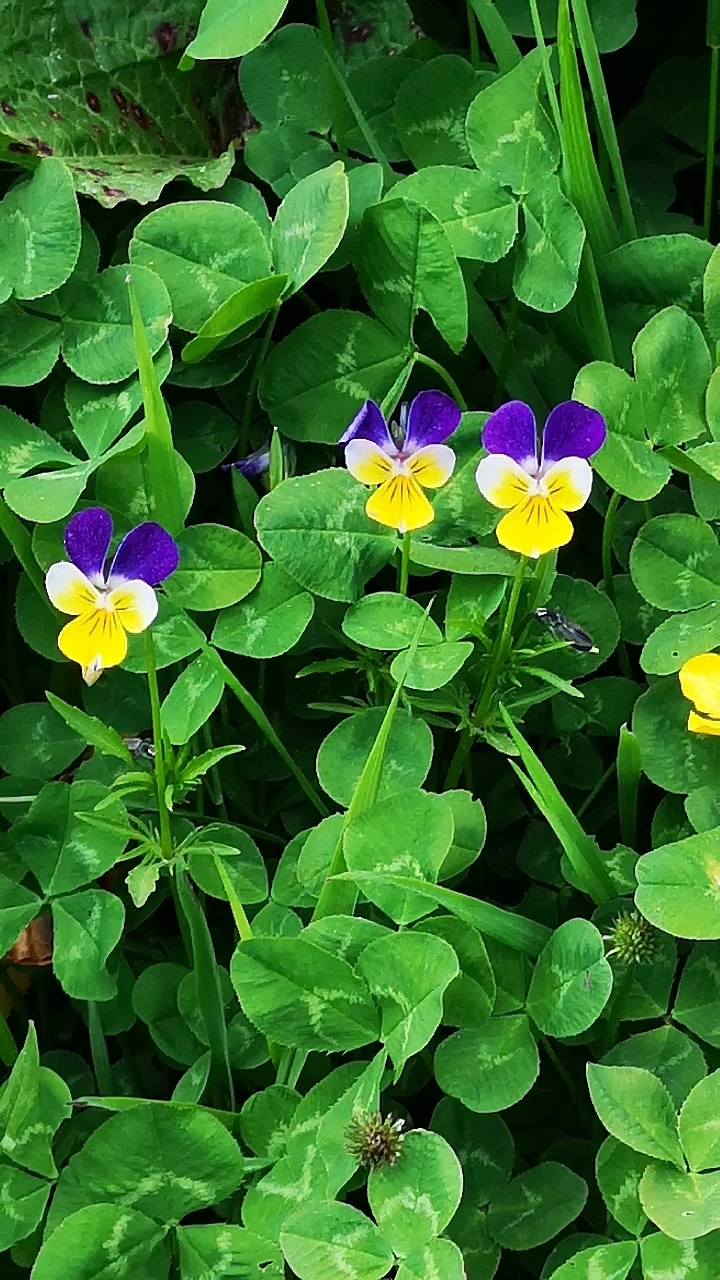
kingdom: Plantae
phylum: Tracheophyta
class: Magnoliopsida
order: Malpighiales
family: Violaceae
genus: Viola
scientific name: Viola tricolor
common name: Pansy
